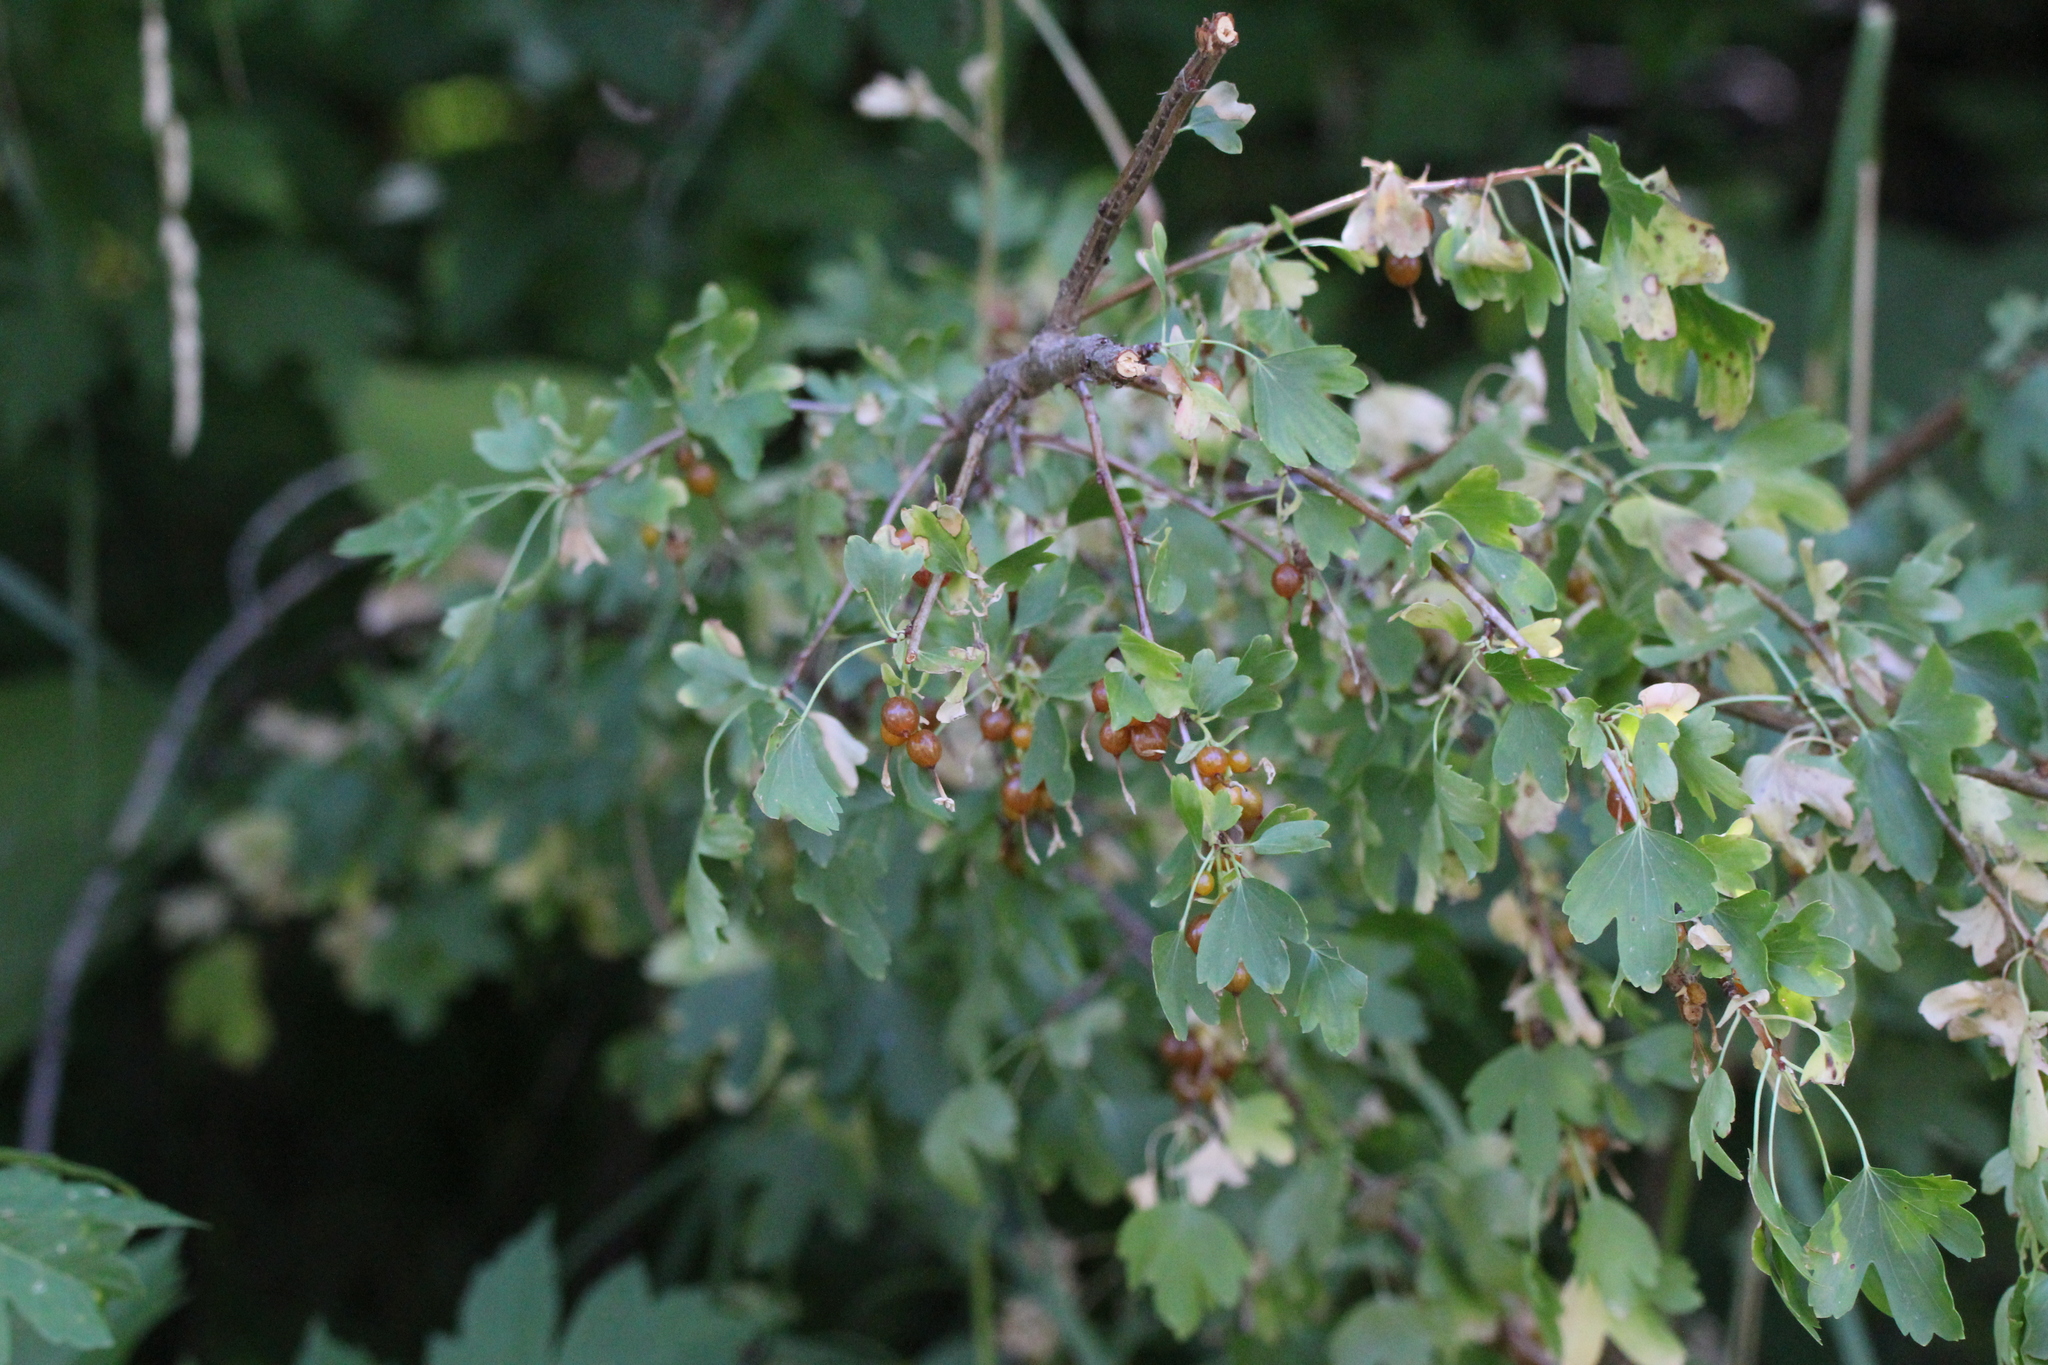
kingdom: Plantae
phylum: Tracheophyta
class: Magnoliopsida
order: Saxifragales
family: Grossulariaceae
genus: Ribes
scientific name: Ribes aureum
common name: Golden currant
